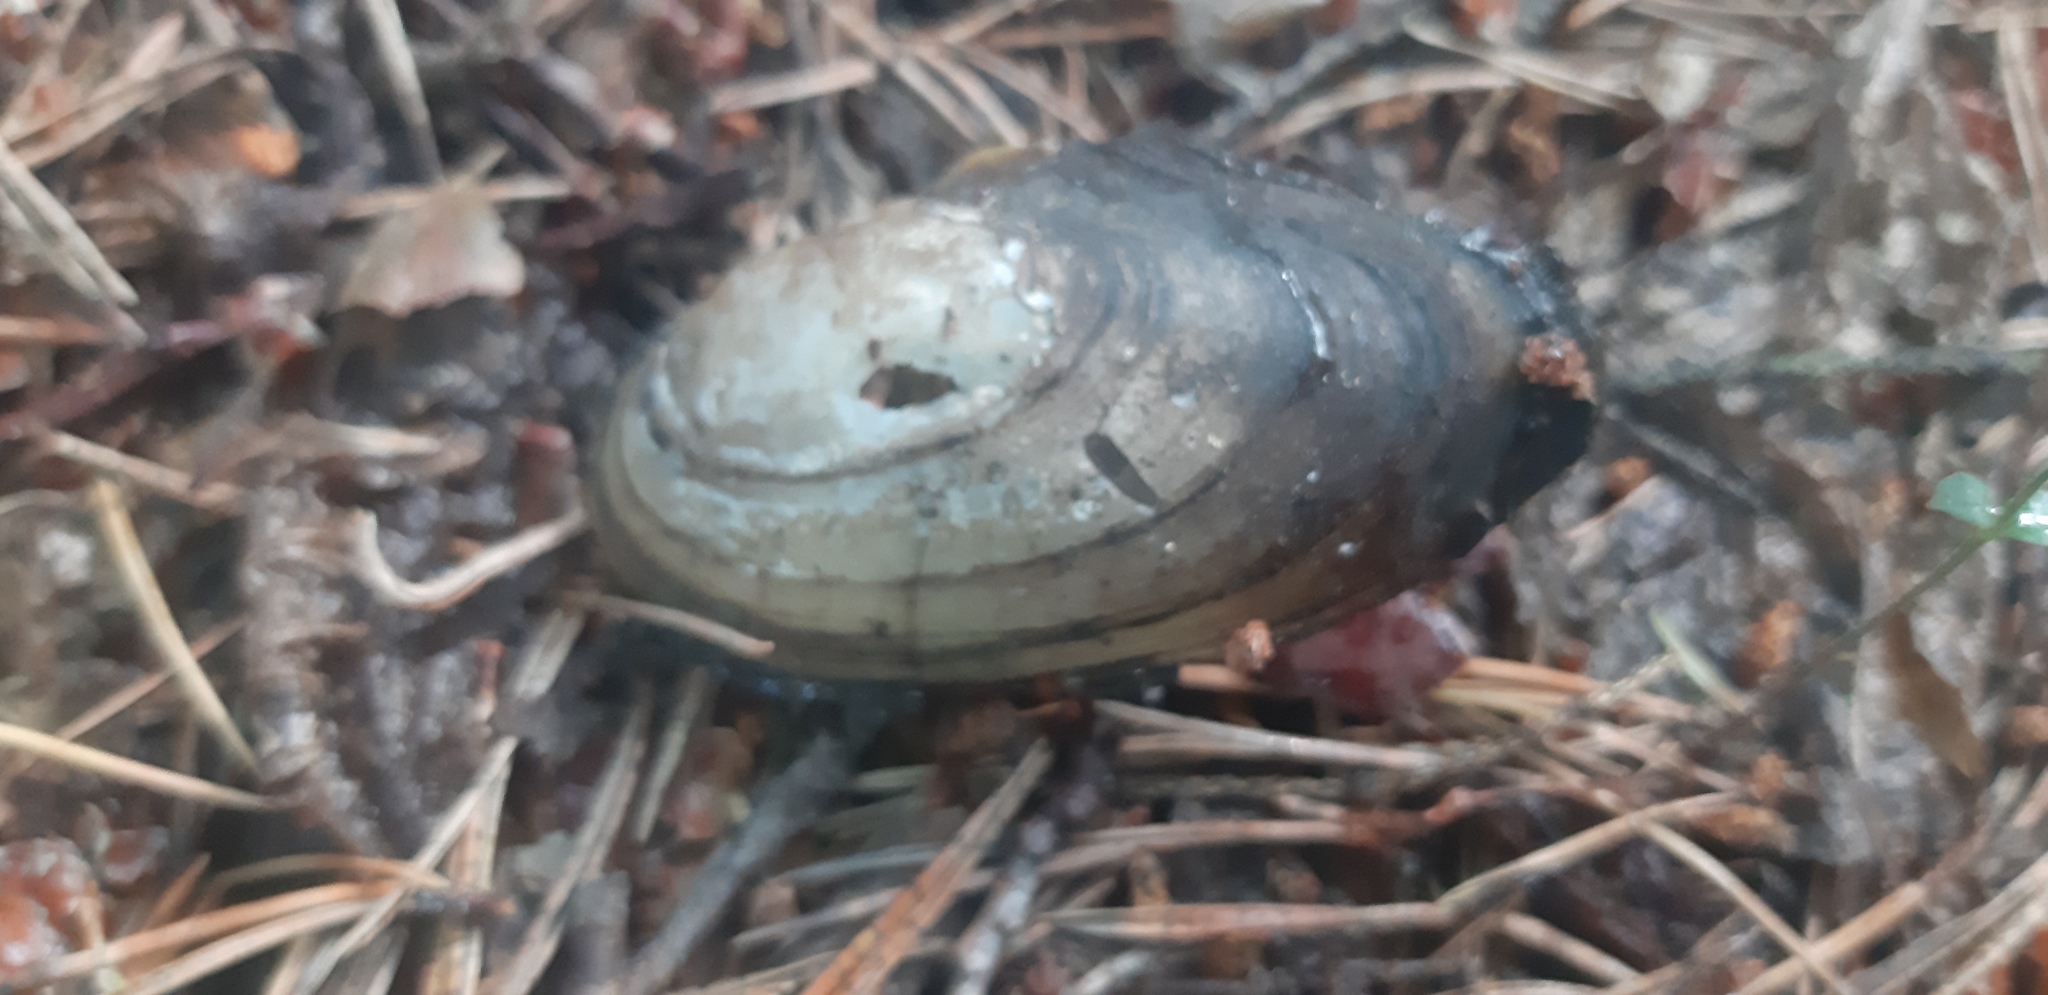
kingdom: Animalia
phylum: Mollusca
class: Bivalvia
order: Unionida
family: Unionidae
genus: Anodonta
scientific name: Anodonta anatina
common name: Duck mussel
